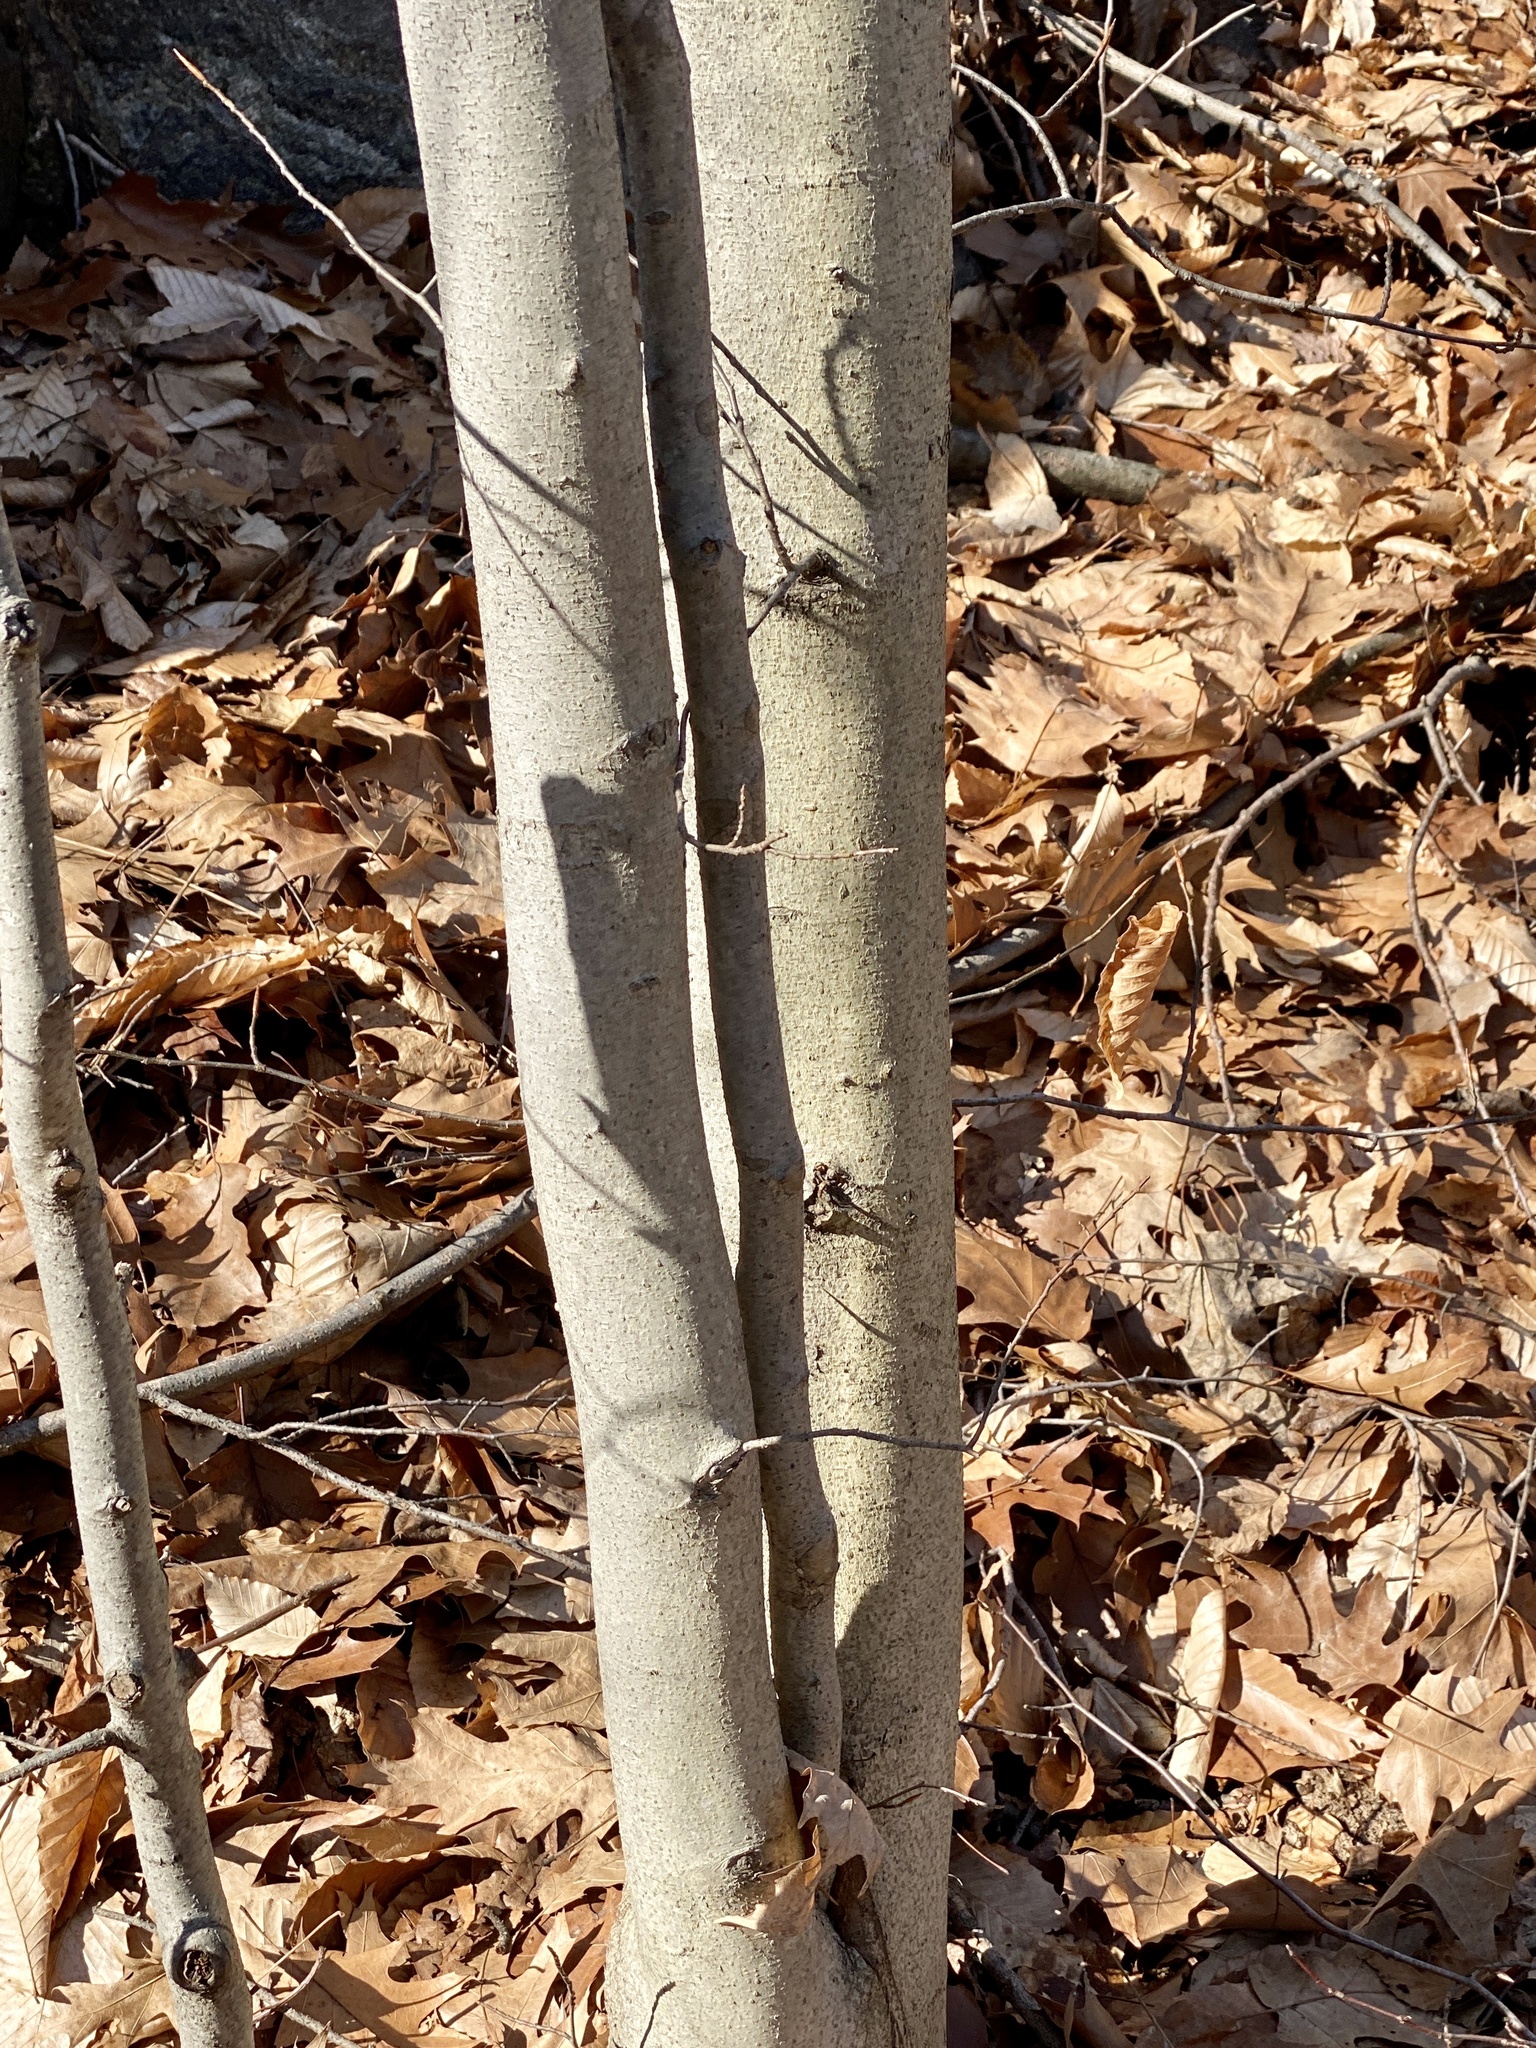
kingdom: Plantae
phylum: Tracheophyta
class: Magnoliopsida
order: Fagales
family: Fagaceae
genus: Fagus
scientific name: Fagus grandifolia
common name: American beech
